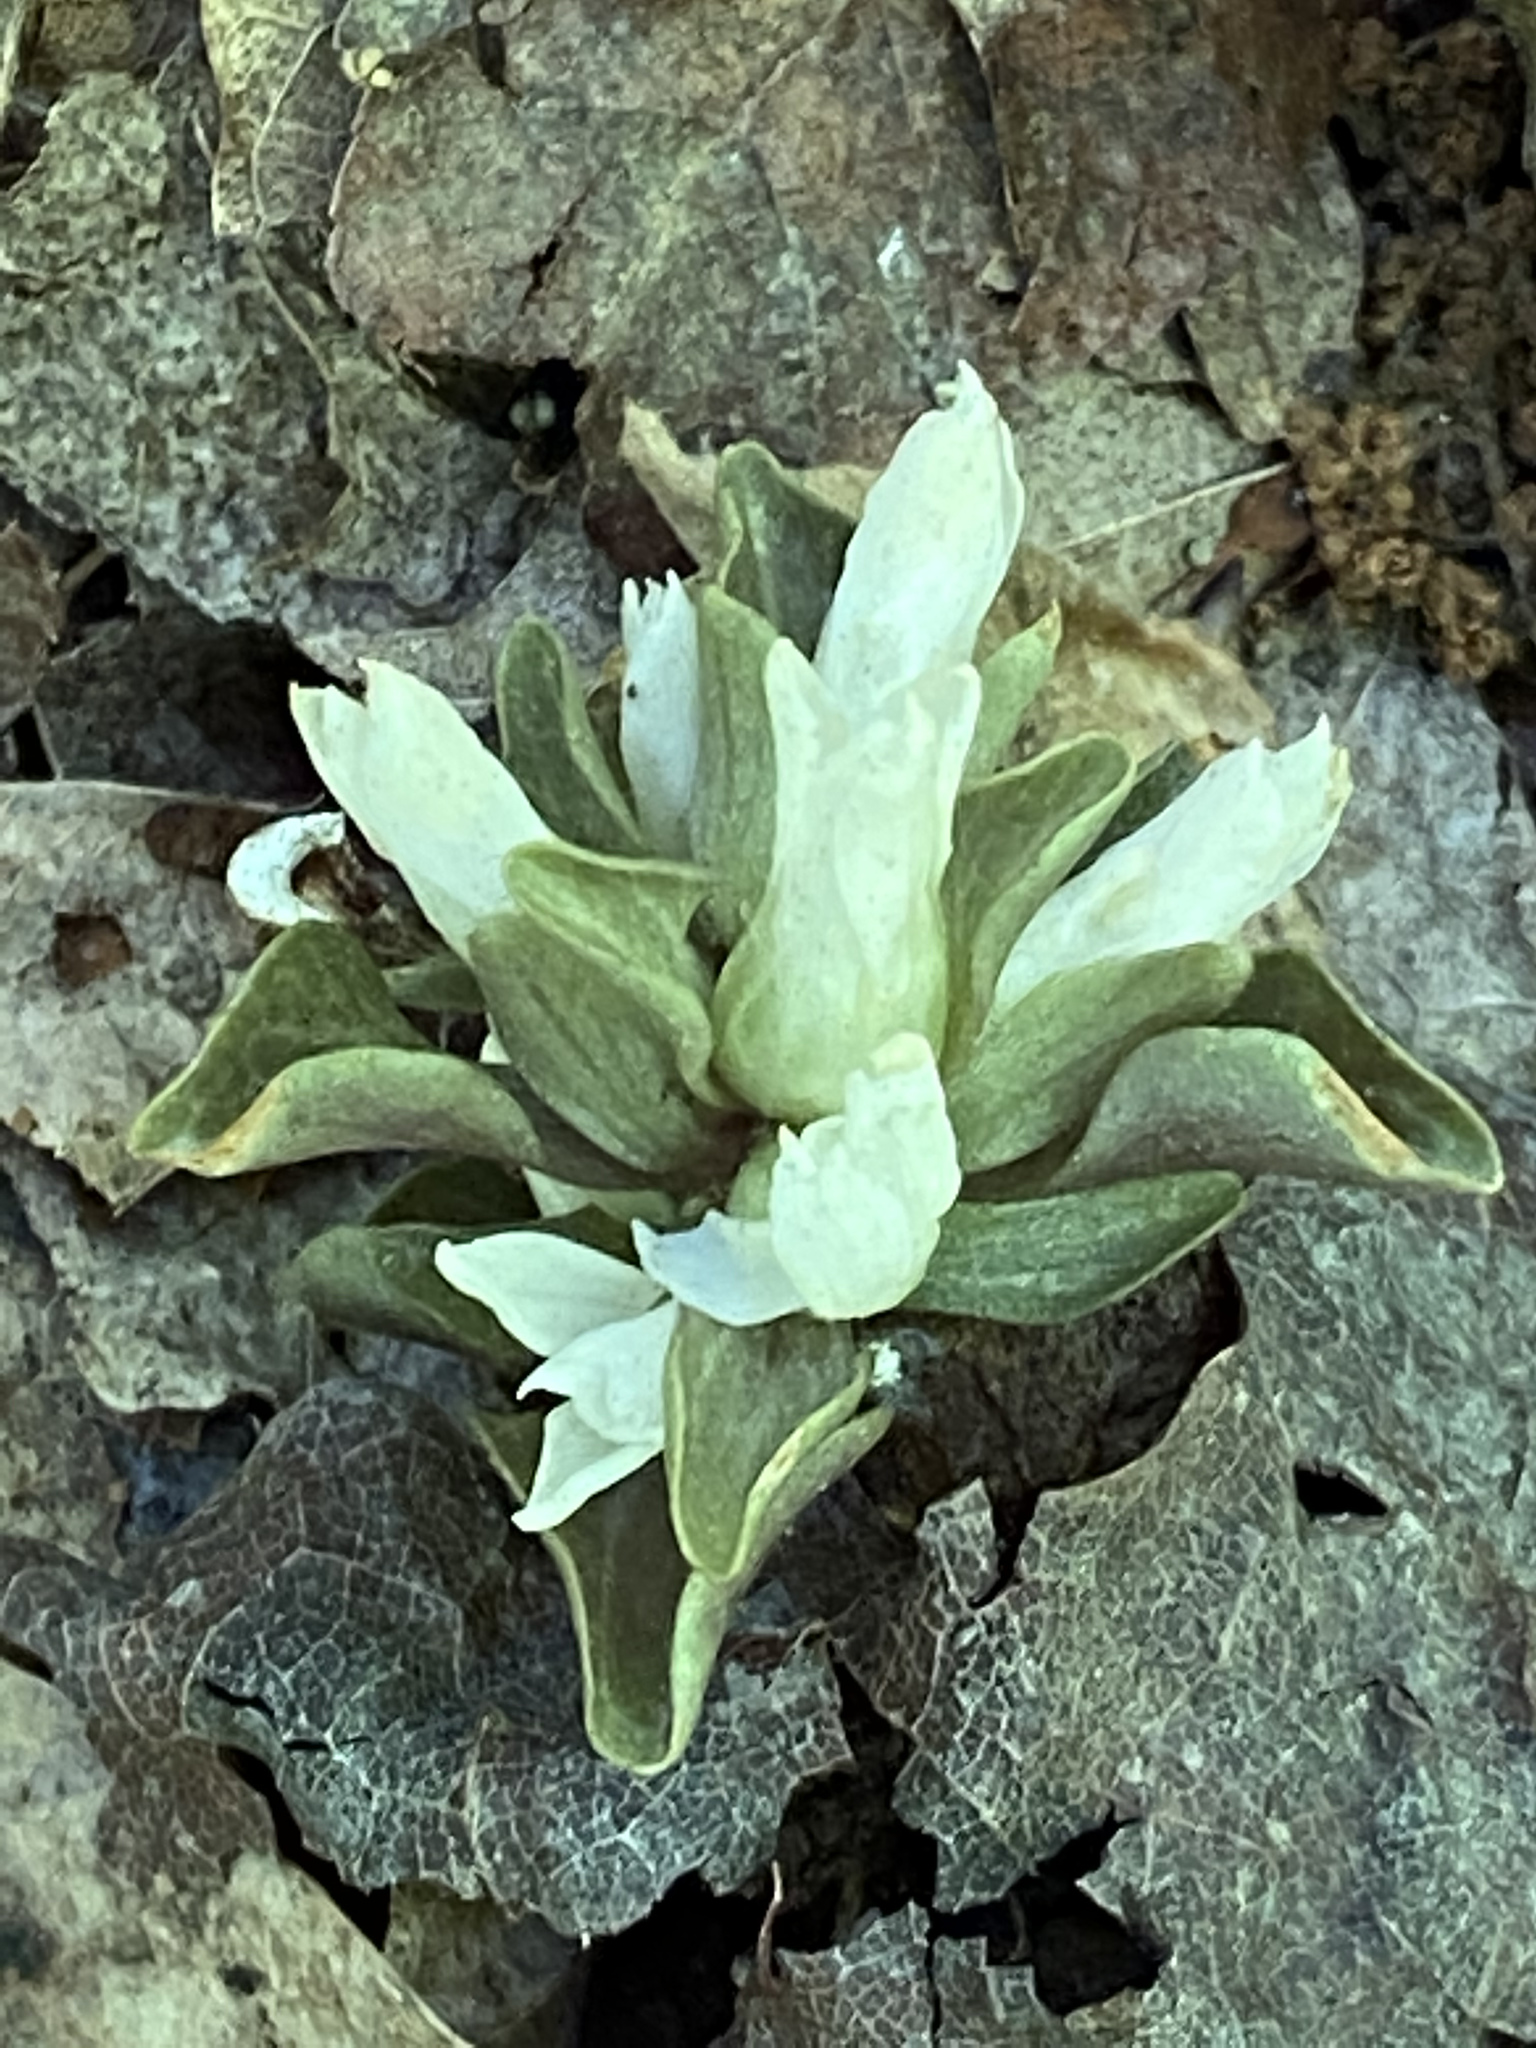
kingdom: Plantae
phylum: Tracheophyta
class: Magnoliopsida
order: Gentianales
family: Gentianaceae
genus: Obolaria
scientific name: Obolaria virginica
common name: Pennywort
